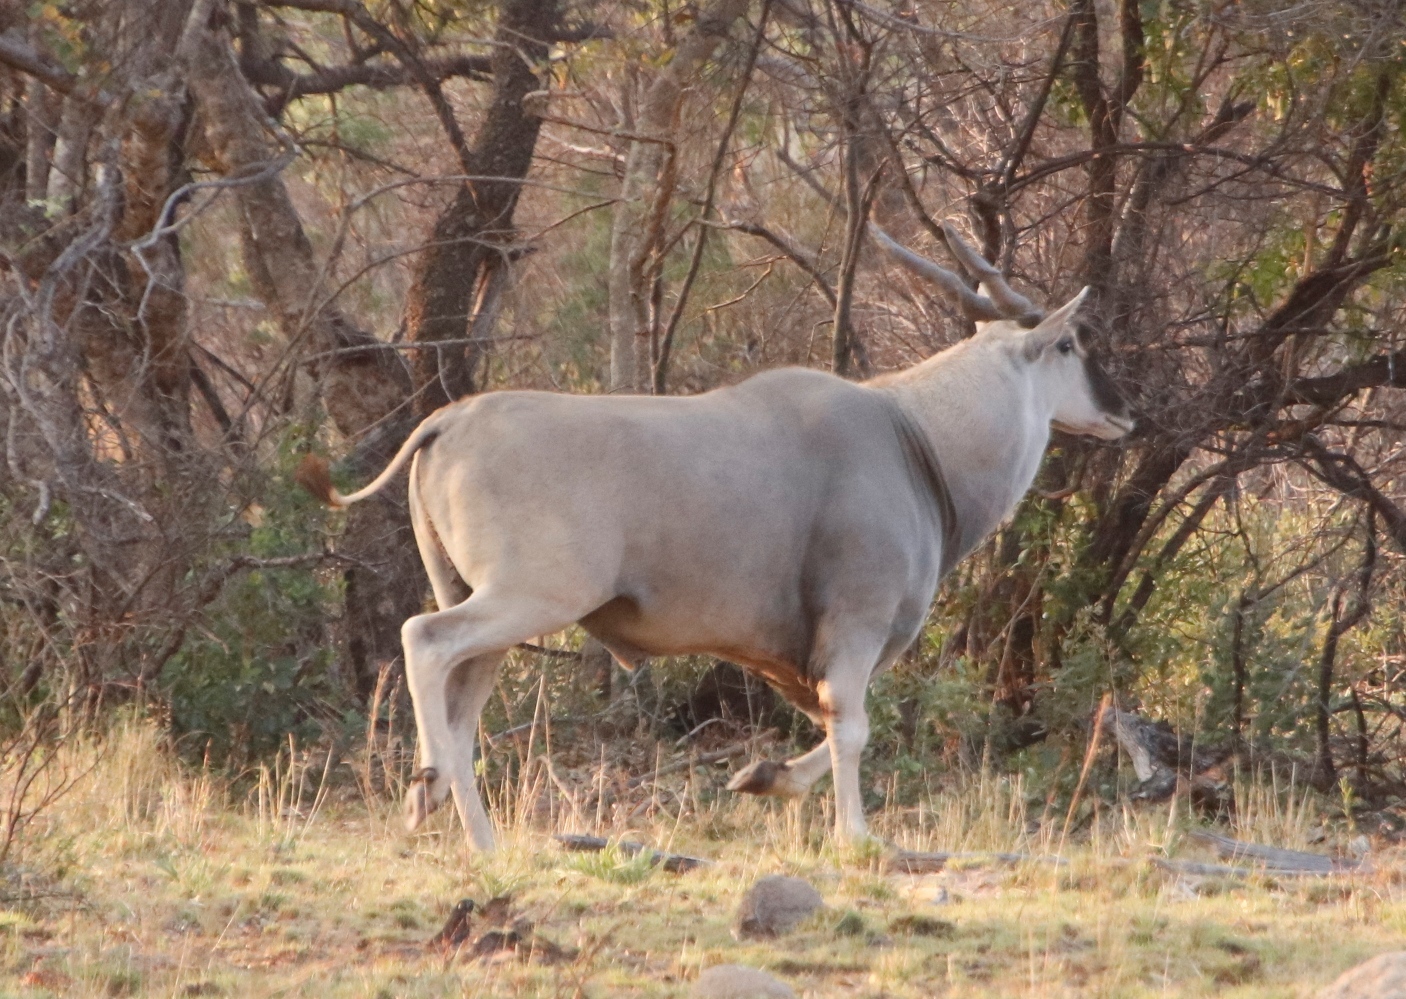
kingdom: Animalia
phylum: Chordata
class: Mammalia
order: Artiodactyla
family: Bovidae
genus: Taurotragus
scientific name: Taurotragus oryx
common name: Common eland
